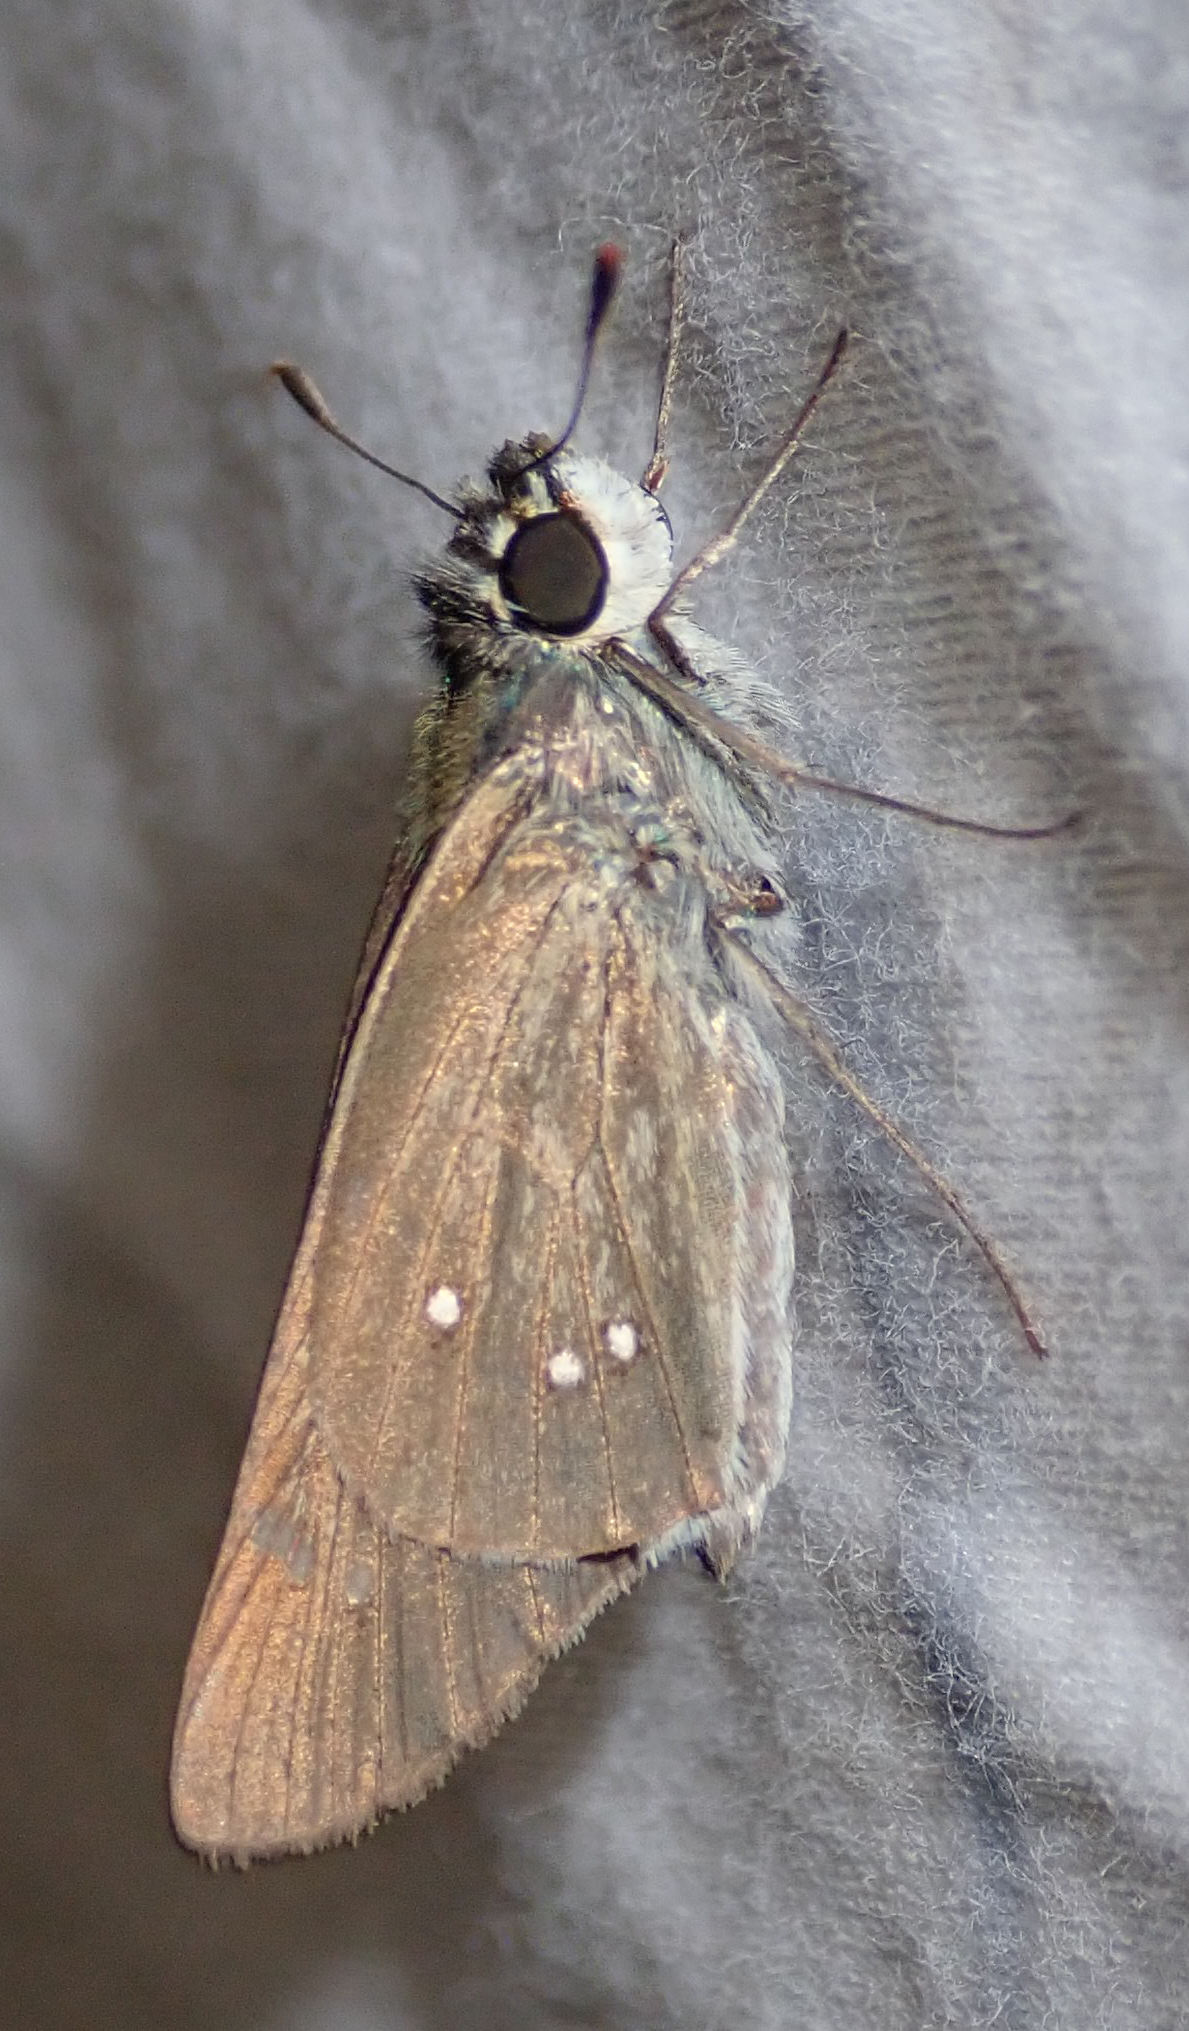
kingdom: Animalia
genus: Torbenlarsenia
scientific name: Torbenlarsenia
